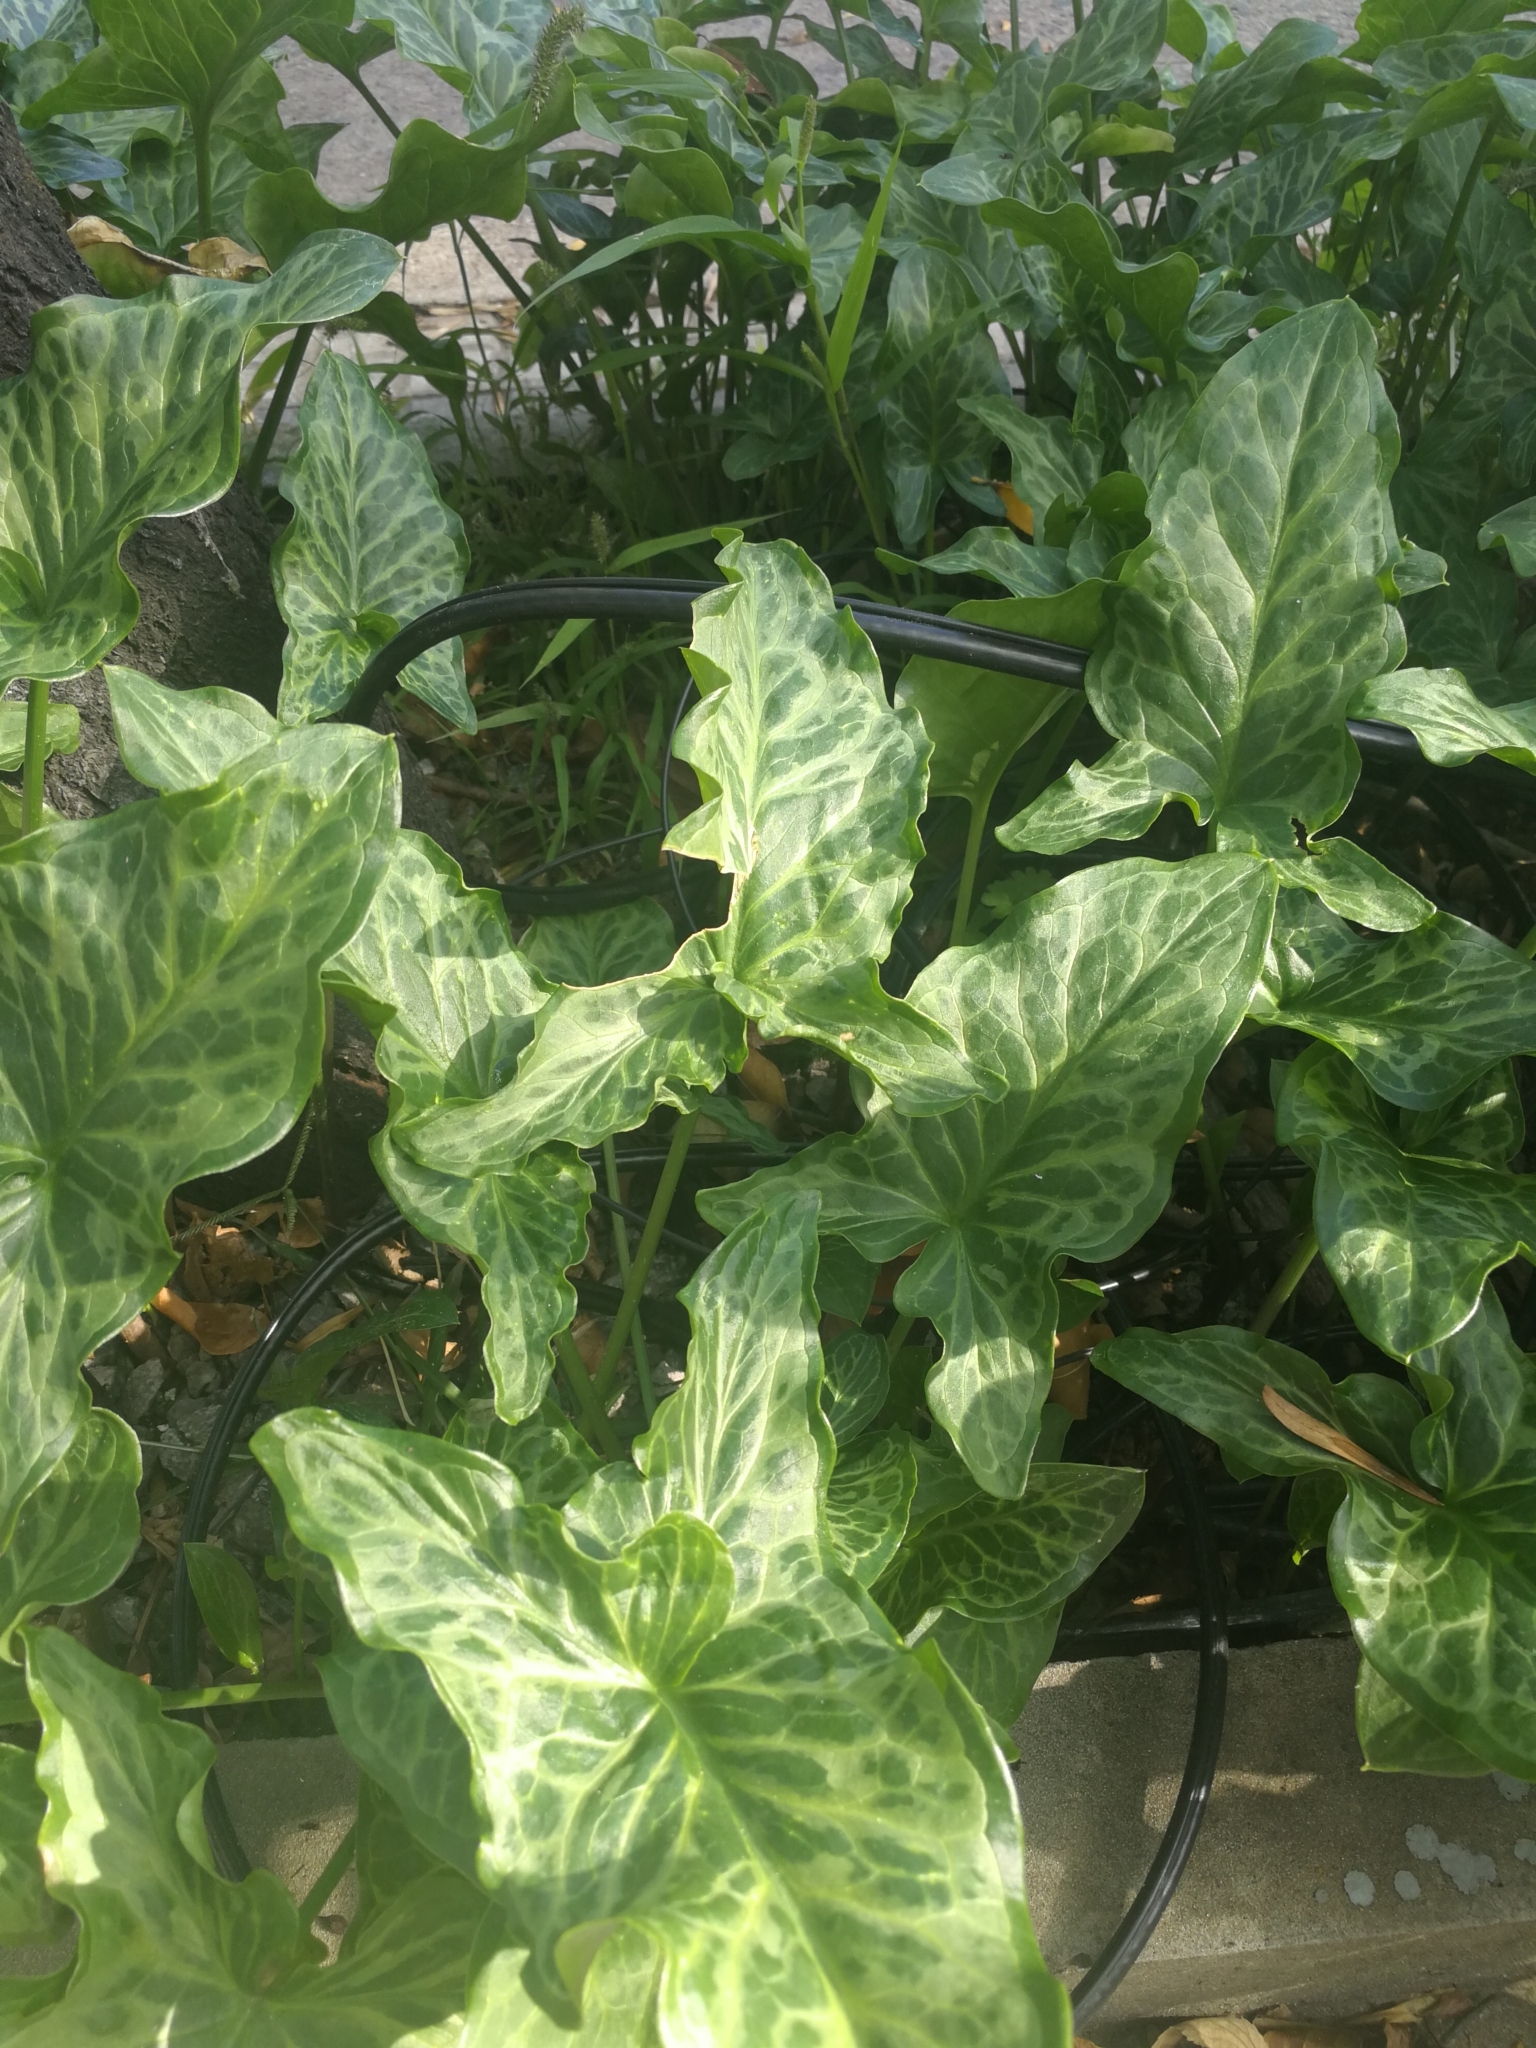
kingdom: Plantae
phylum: Tracheophyta
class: Liliopsida
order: Alismatales
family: Araceae
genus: Arum
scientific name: Arum italicum
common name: Italian lords-and-ladies
